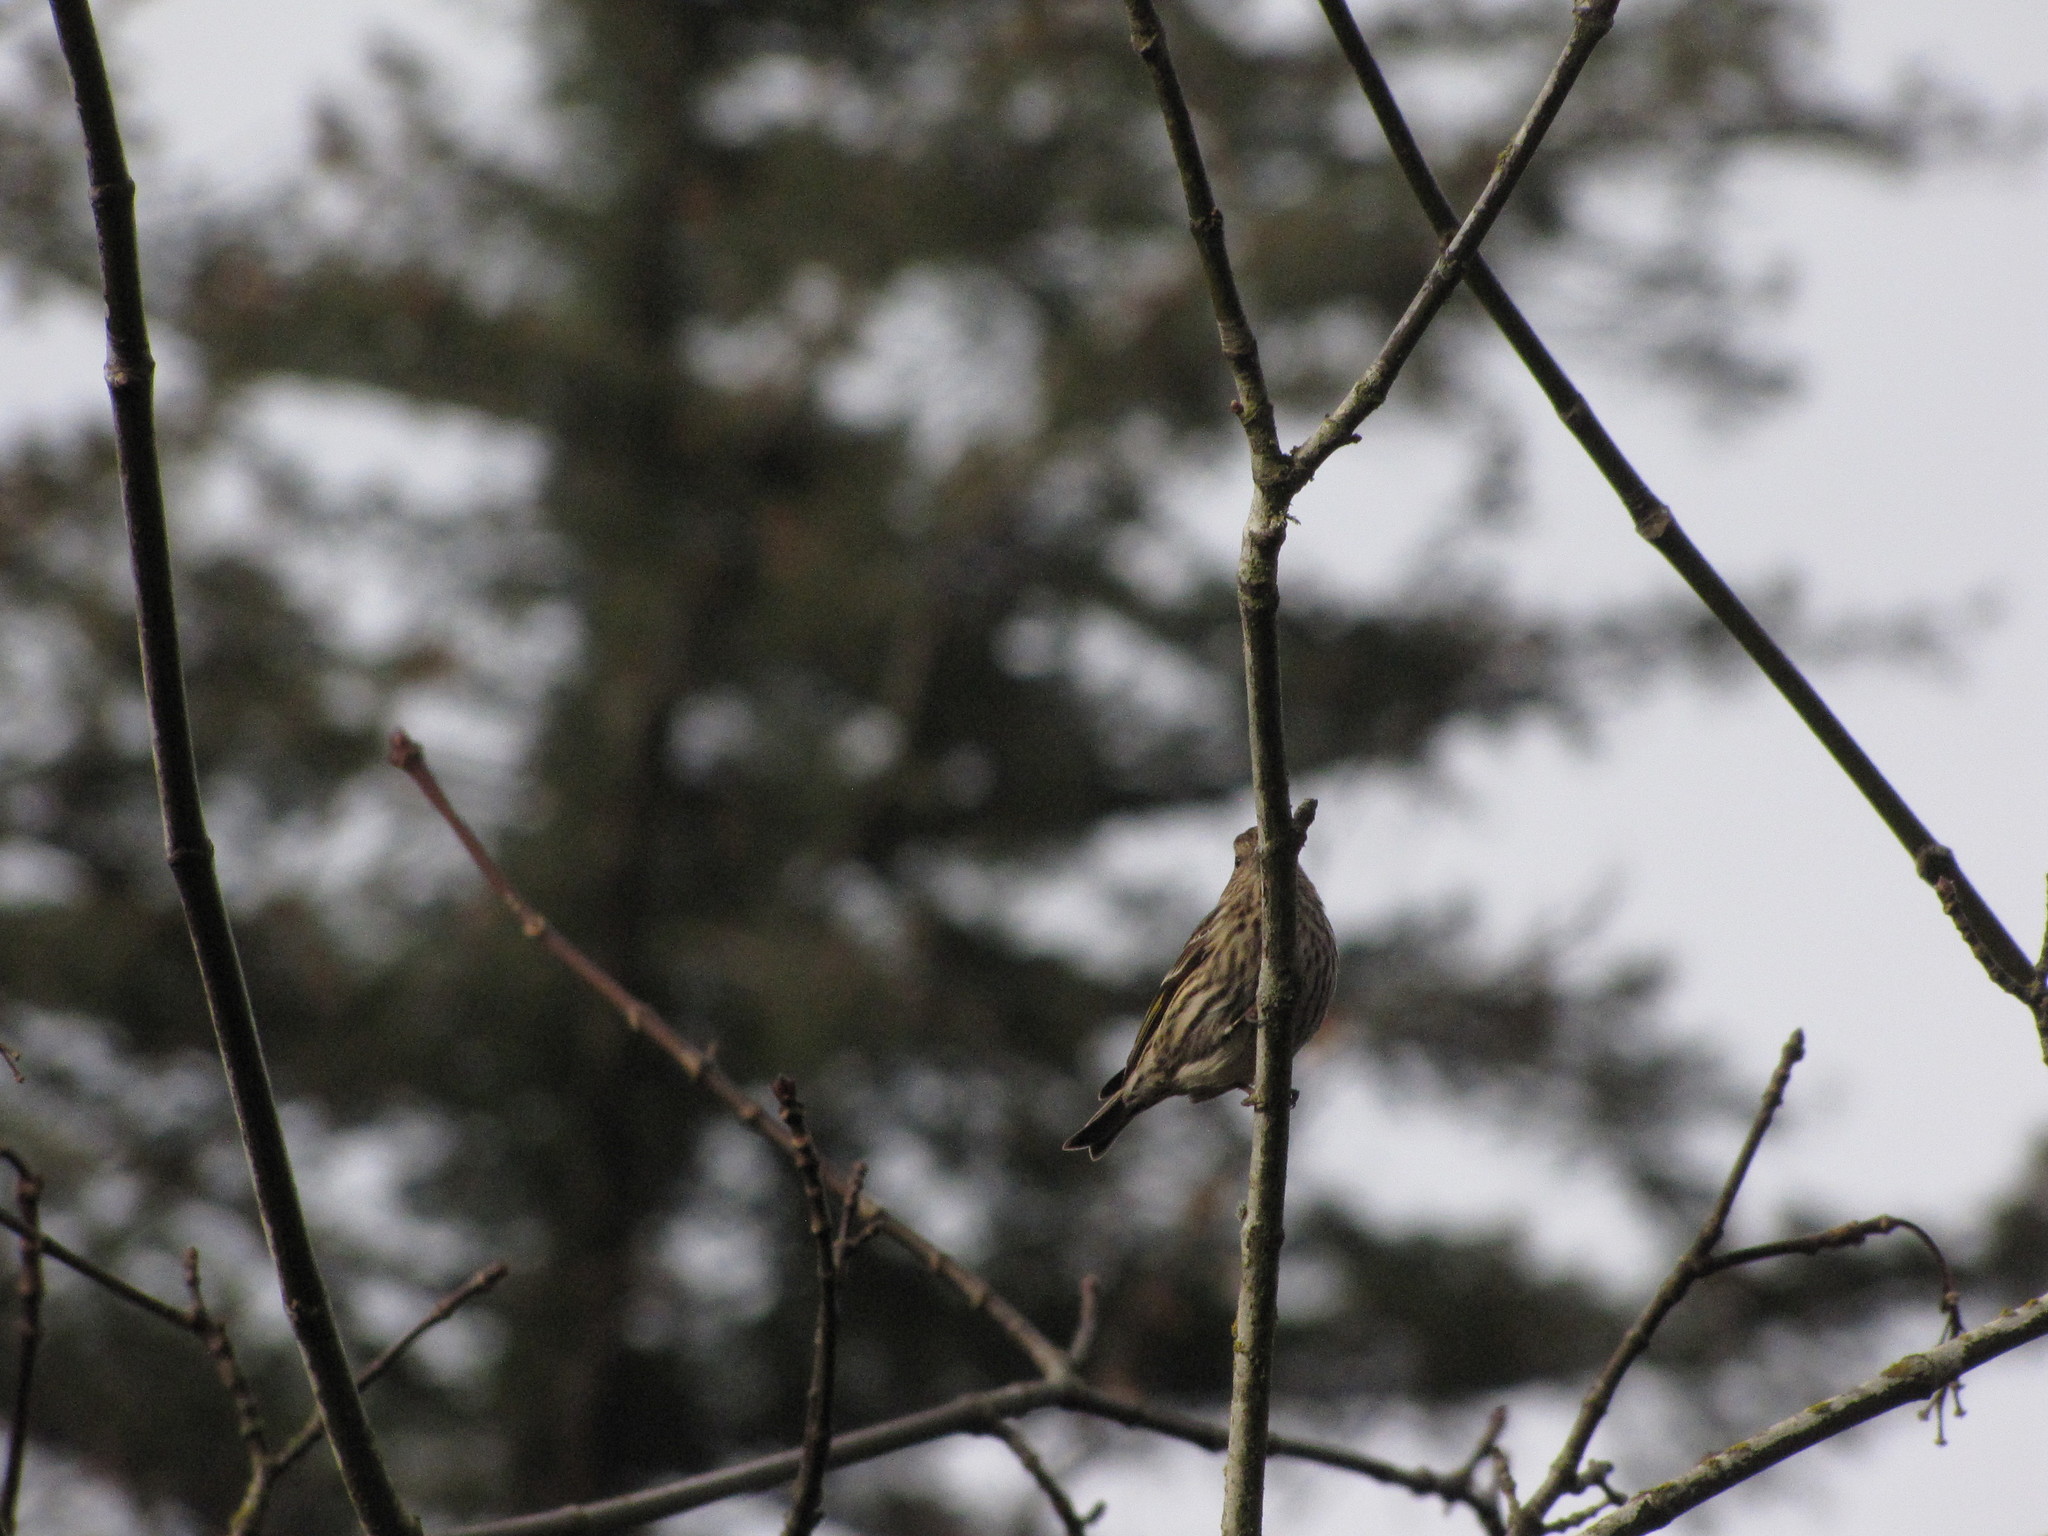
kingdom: Animalia
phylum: Chordata
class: Aves
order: Passeriformes
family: Fringillidae
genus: Spinus
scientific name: Spinus pinus
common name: Pine siskin
